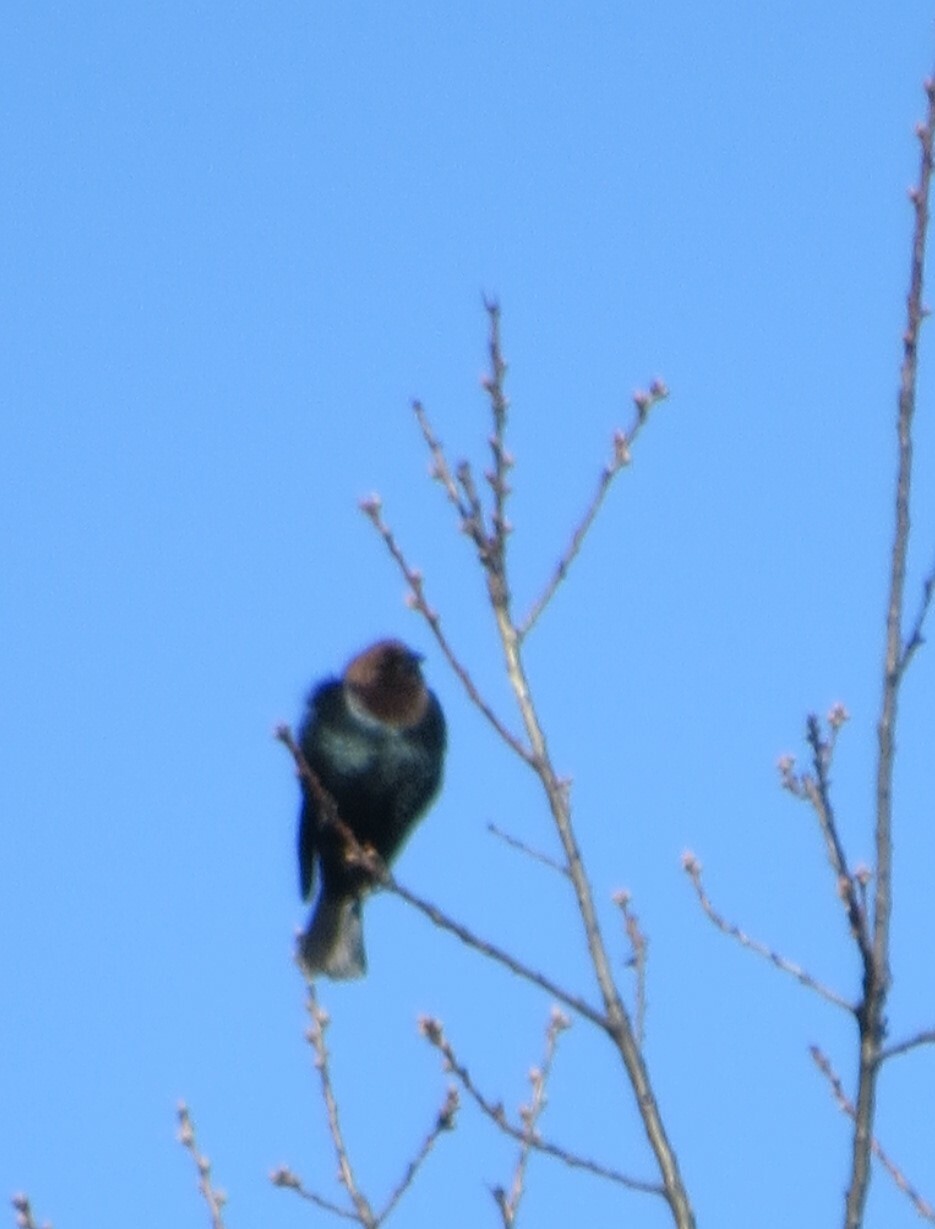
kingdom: Animalia
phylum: Chordata
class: Aves
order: Passeriformes
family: Icteridae
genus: Molothrus
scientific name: Molothrus ater
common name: Brown-headed cowbird
